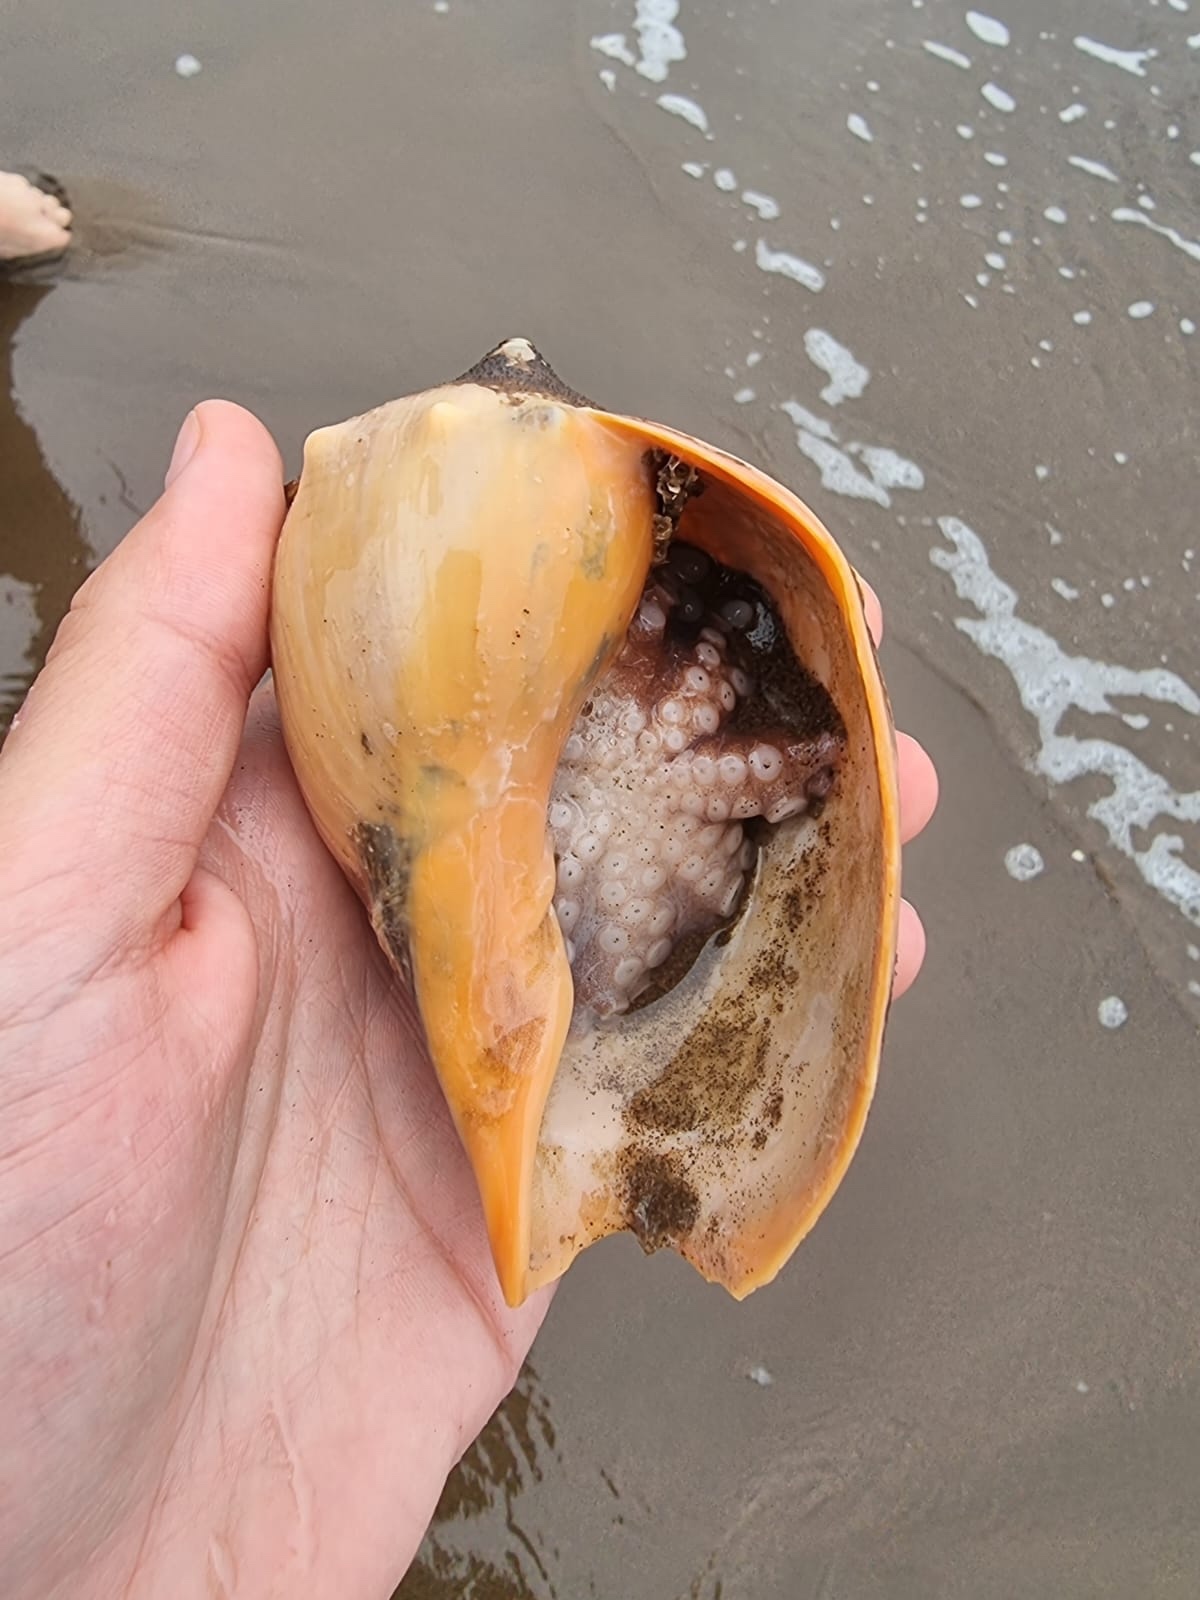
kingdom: Animalia
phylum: Mollusca
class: Cephalopoda
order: Octopoda
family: Octopodidae
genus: Octopus
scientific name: Octopus tehuelchus
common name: Tehuelche octopus
